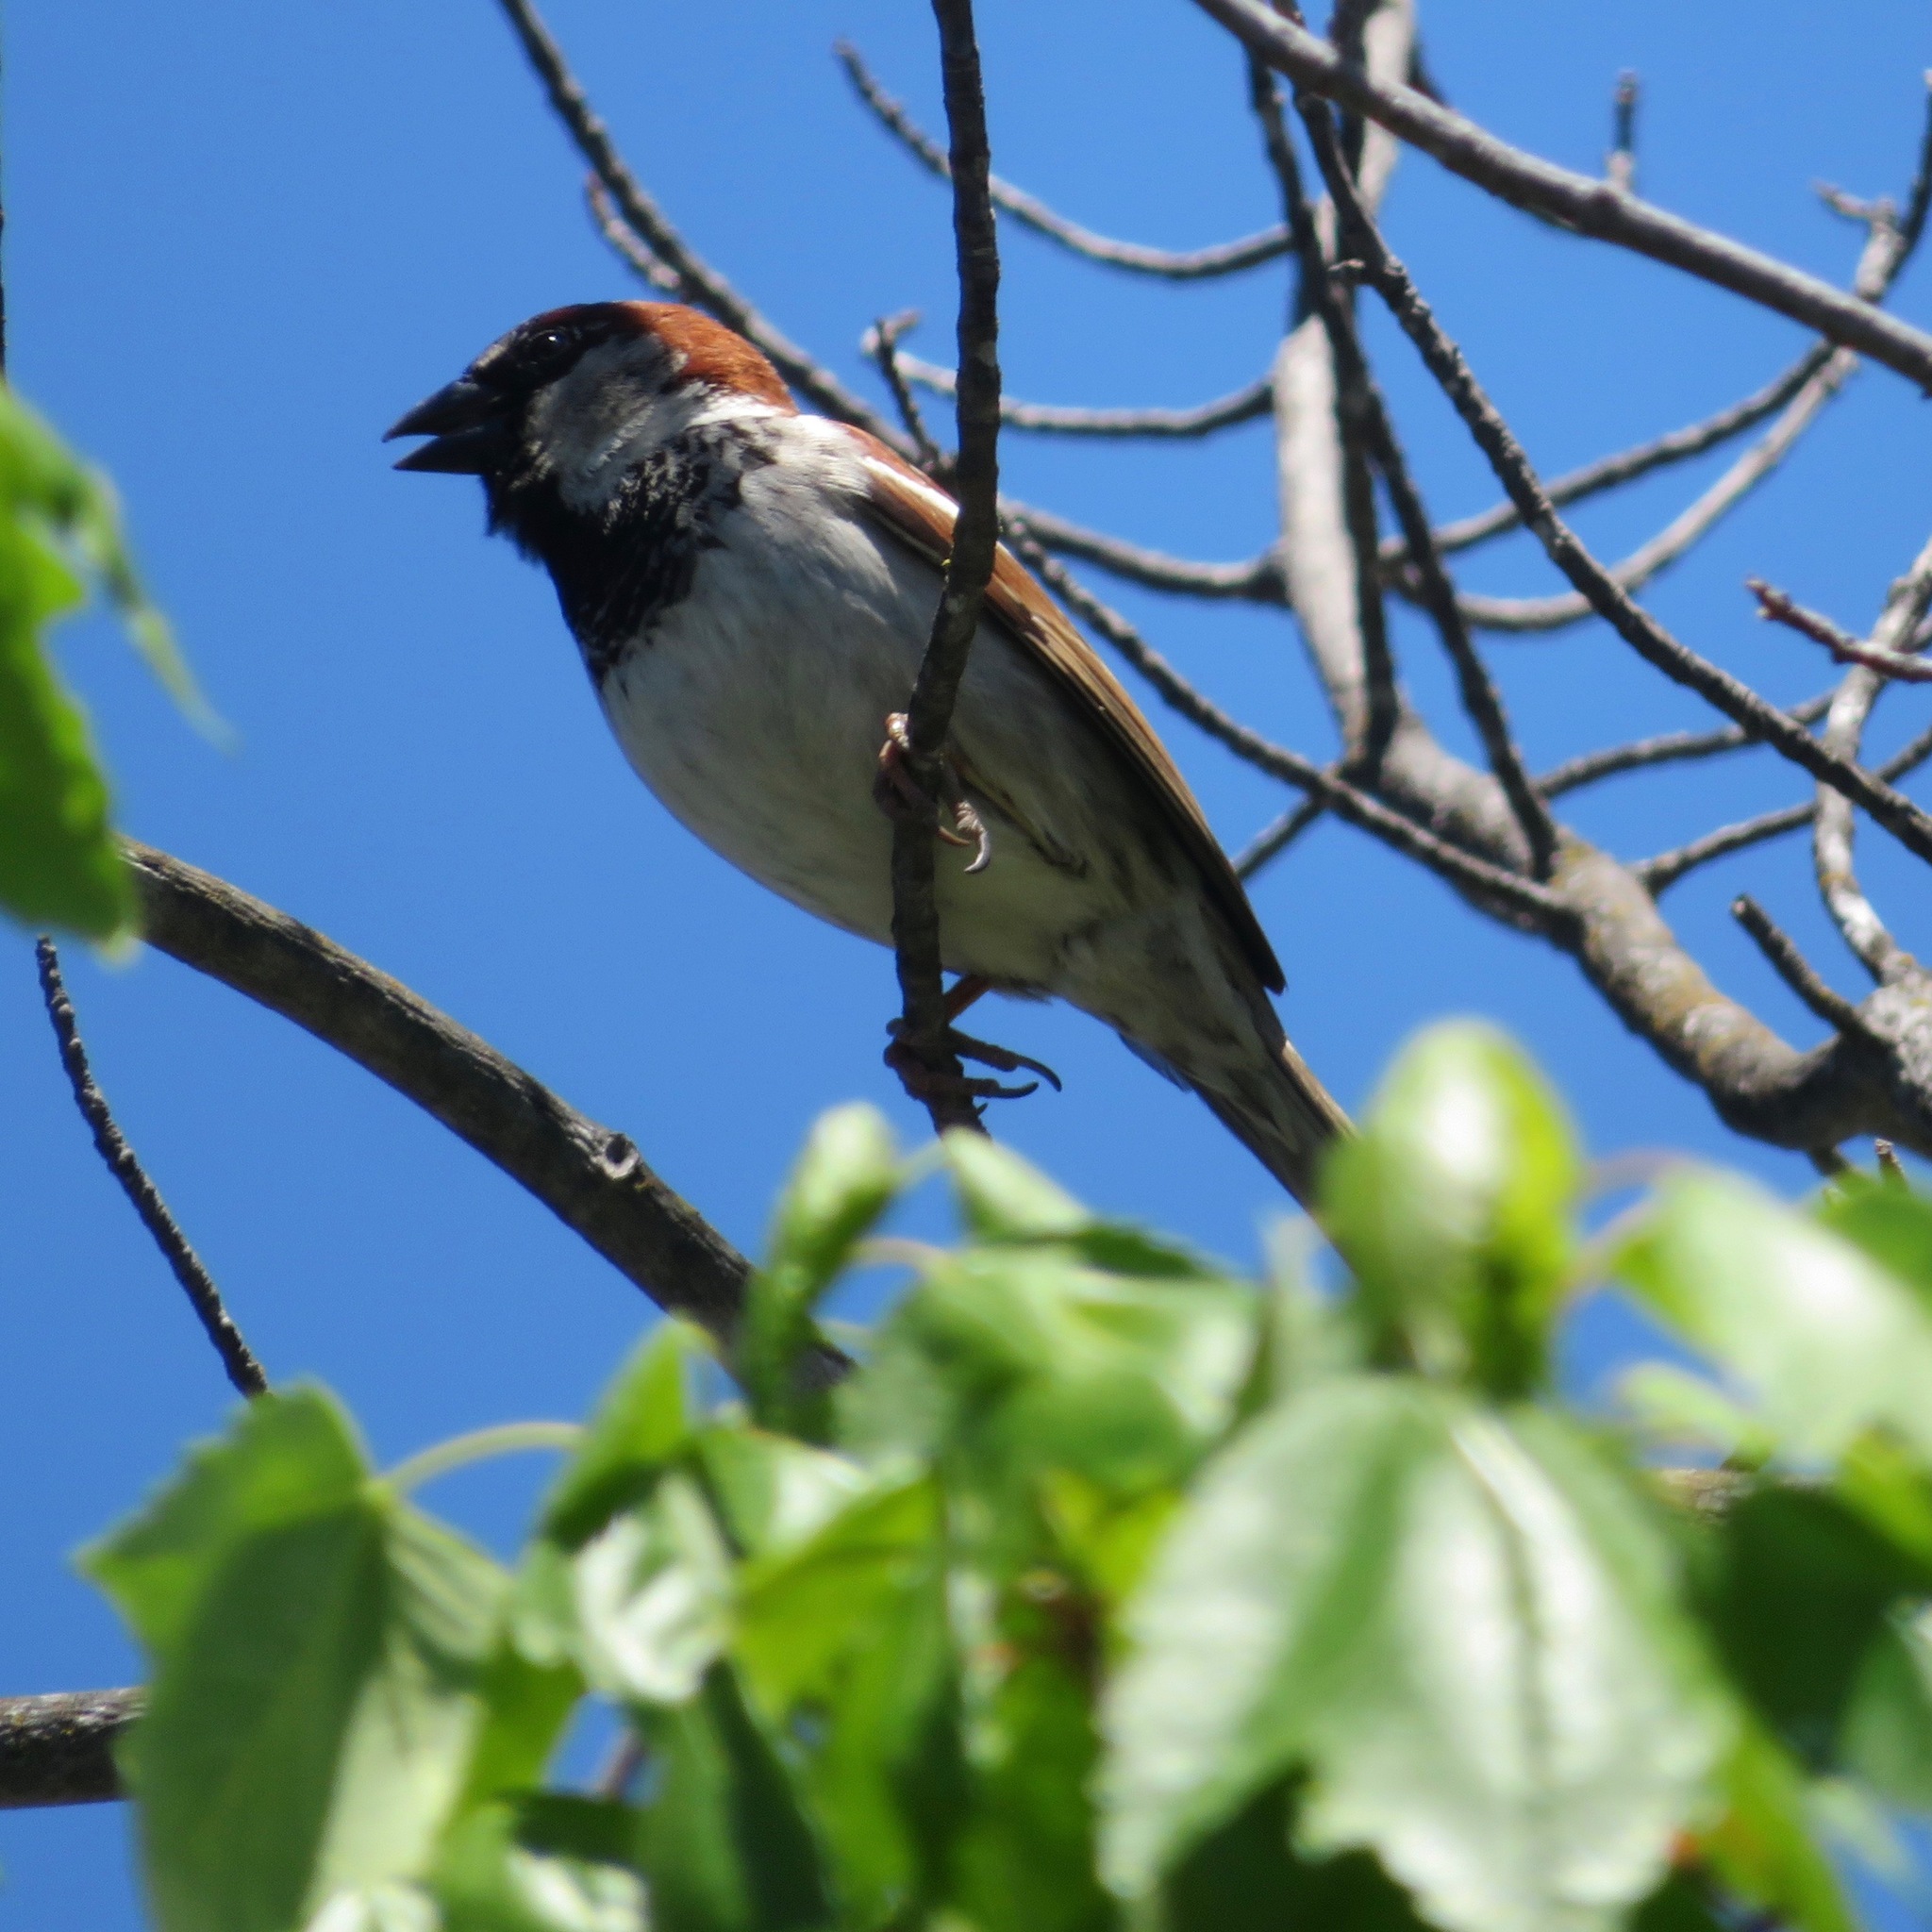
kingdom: Animalia
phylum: Chordata
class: Aves
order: Passeriformes
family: Passeridae
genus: Passer
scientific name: Passer domesticus
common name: House sparrow
